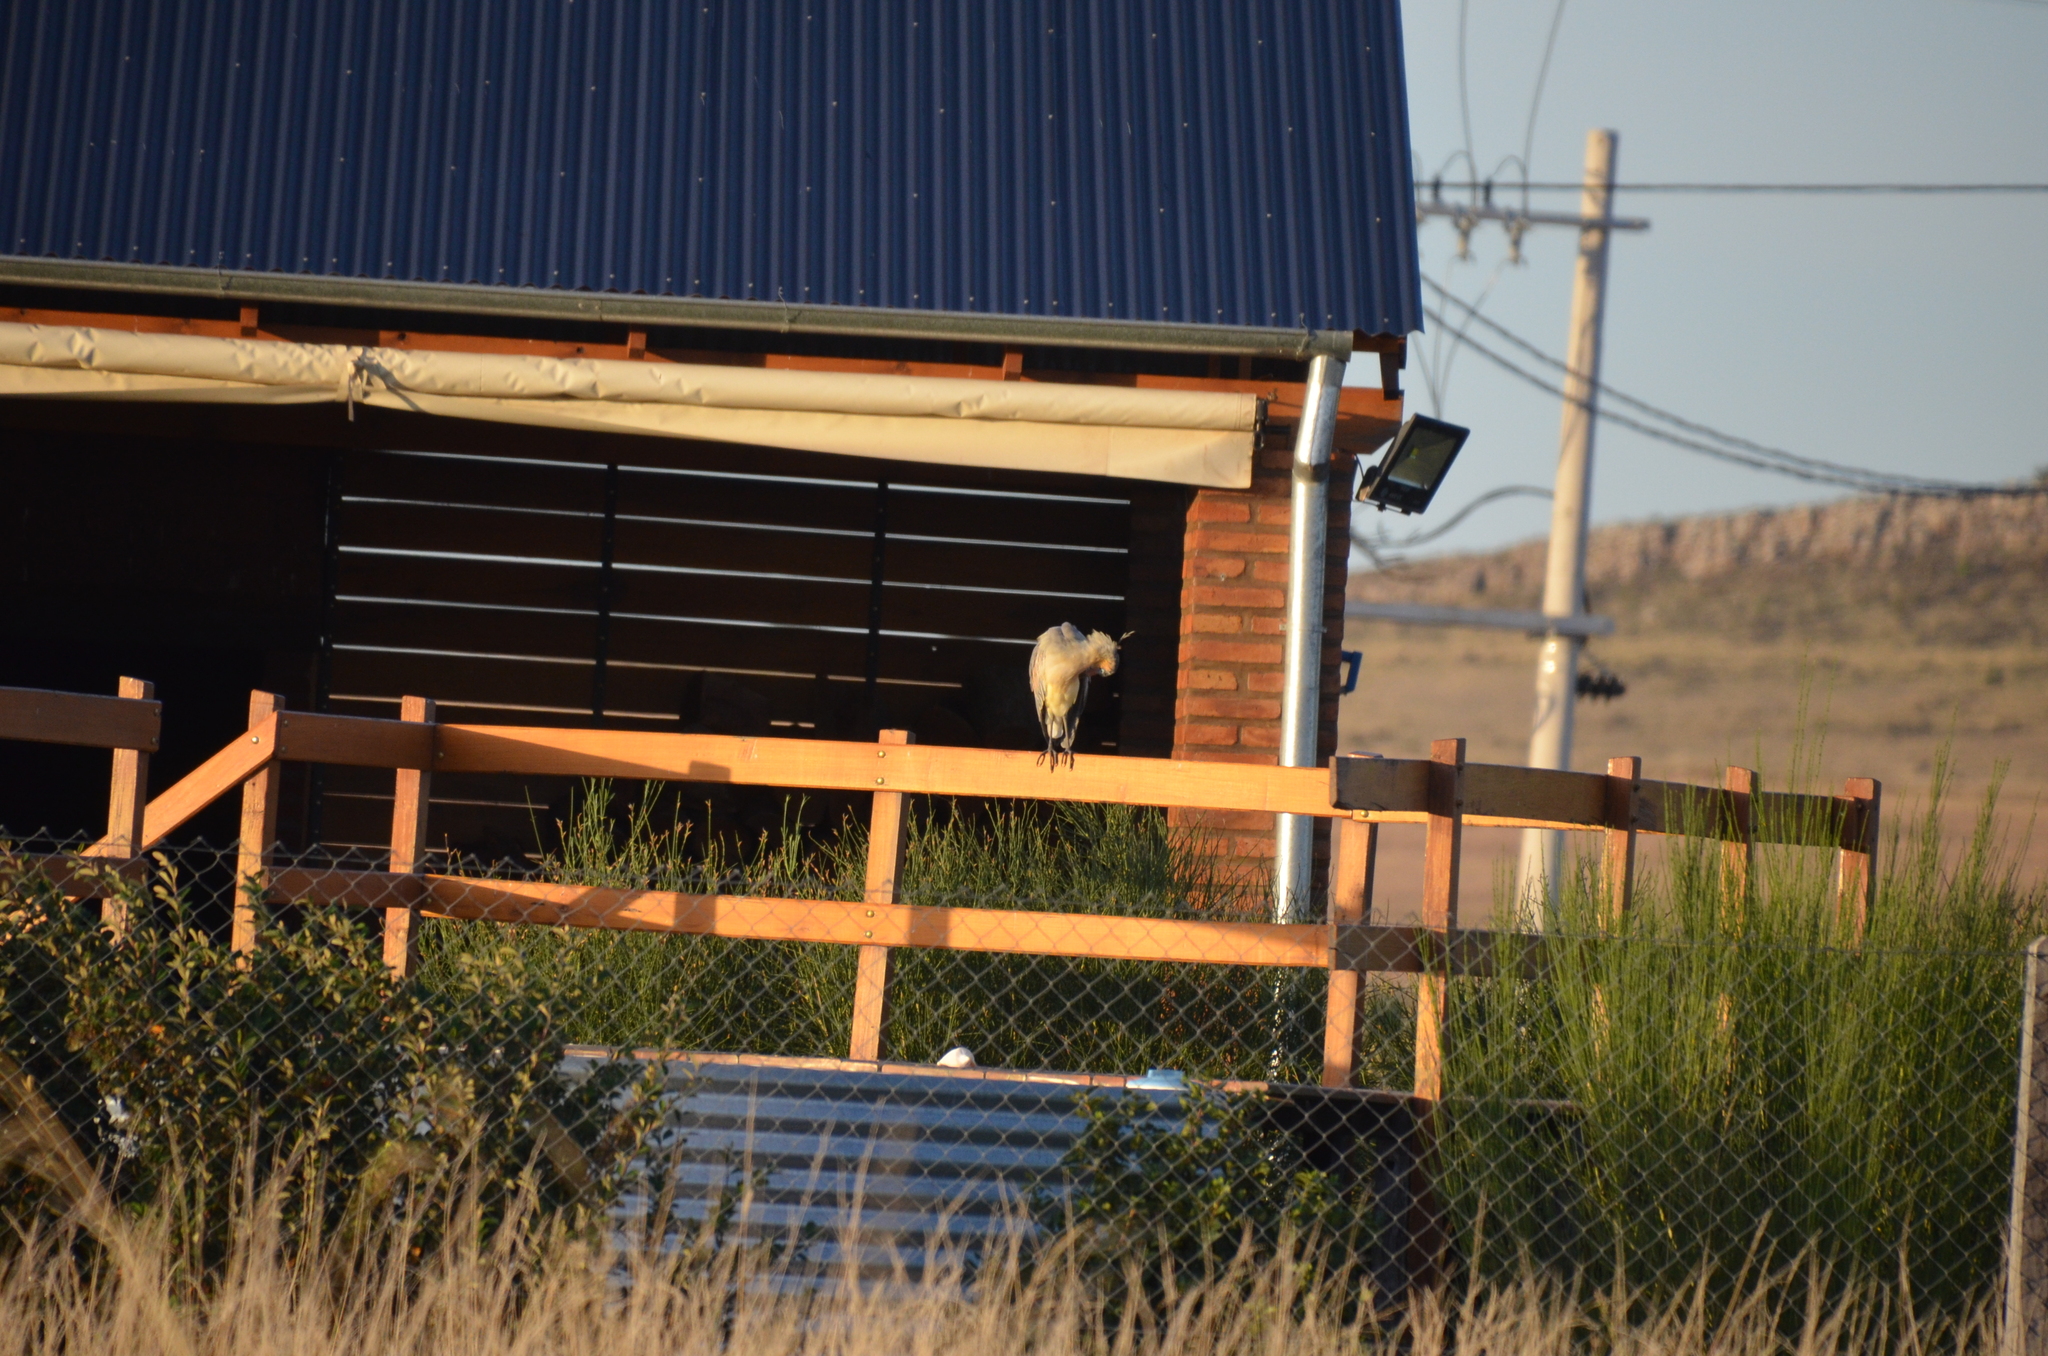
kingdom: Animalia
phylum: Chordata
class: Aves
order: Pelecaniformes
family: Ardeidae
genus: Syrigma
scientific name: Syrigma sibilatrix
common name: Whistling heron
